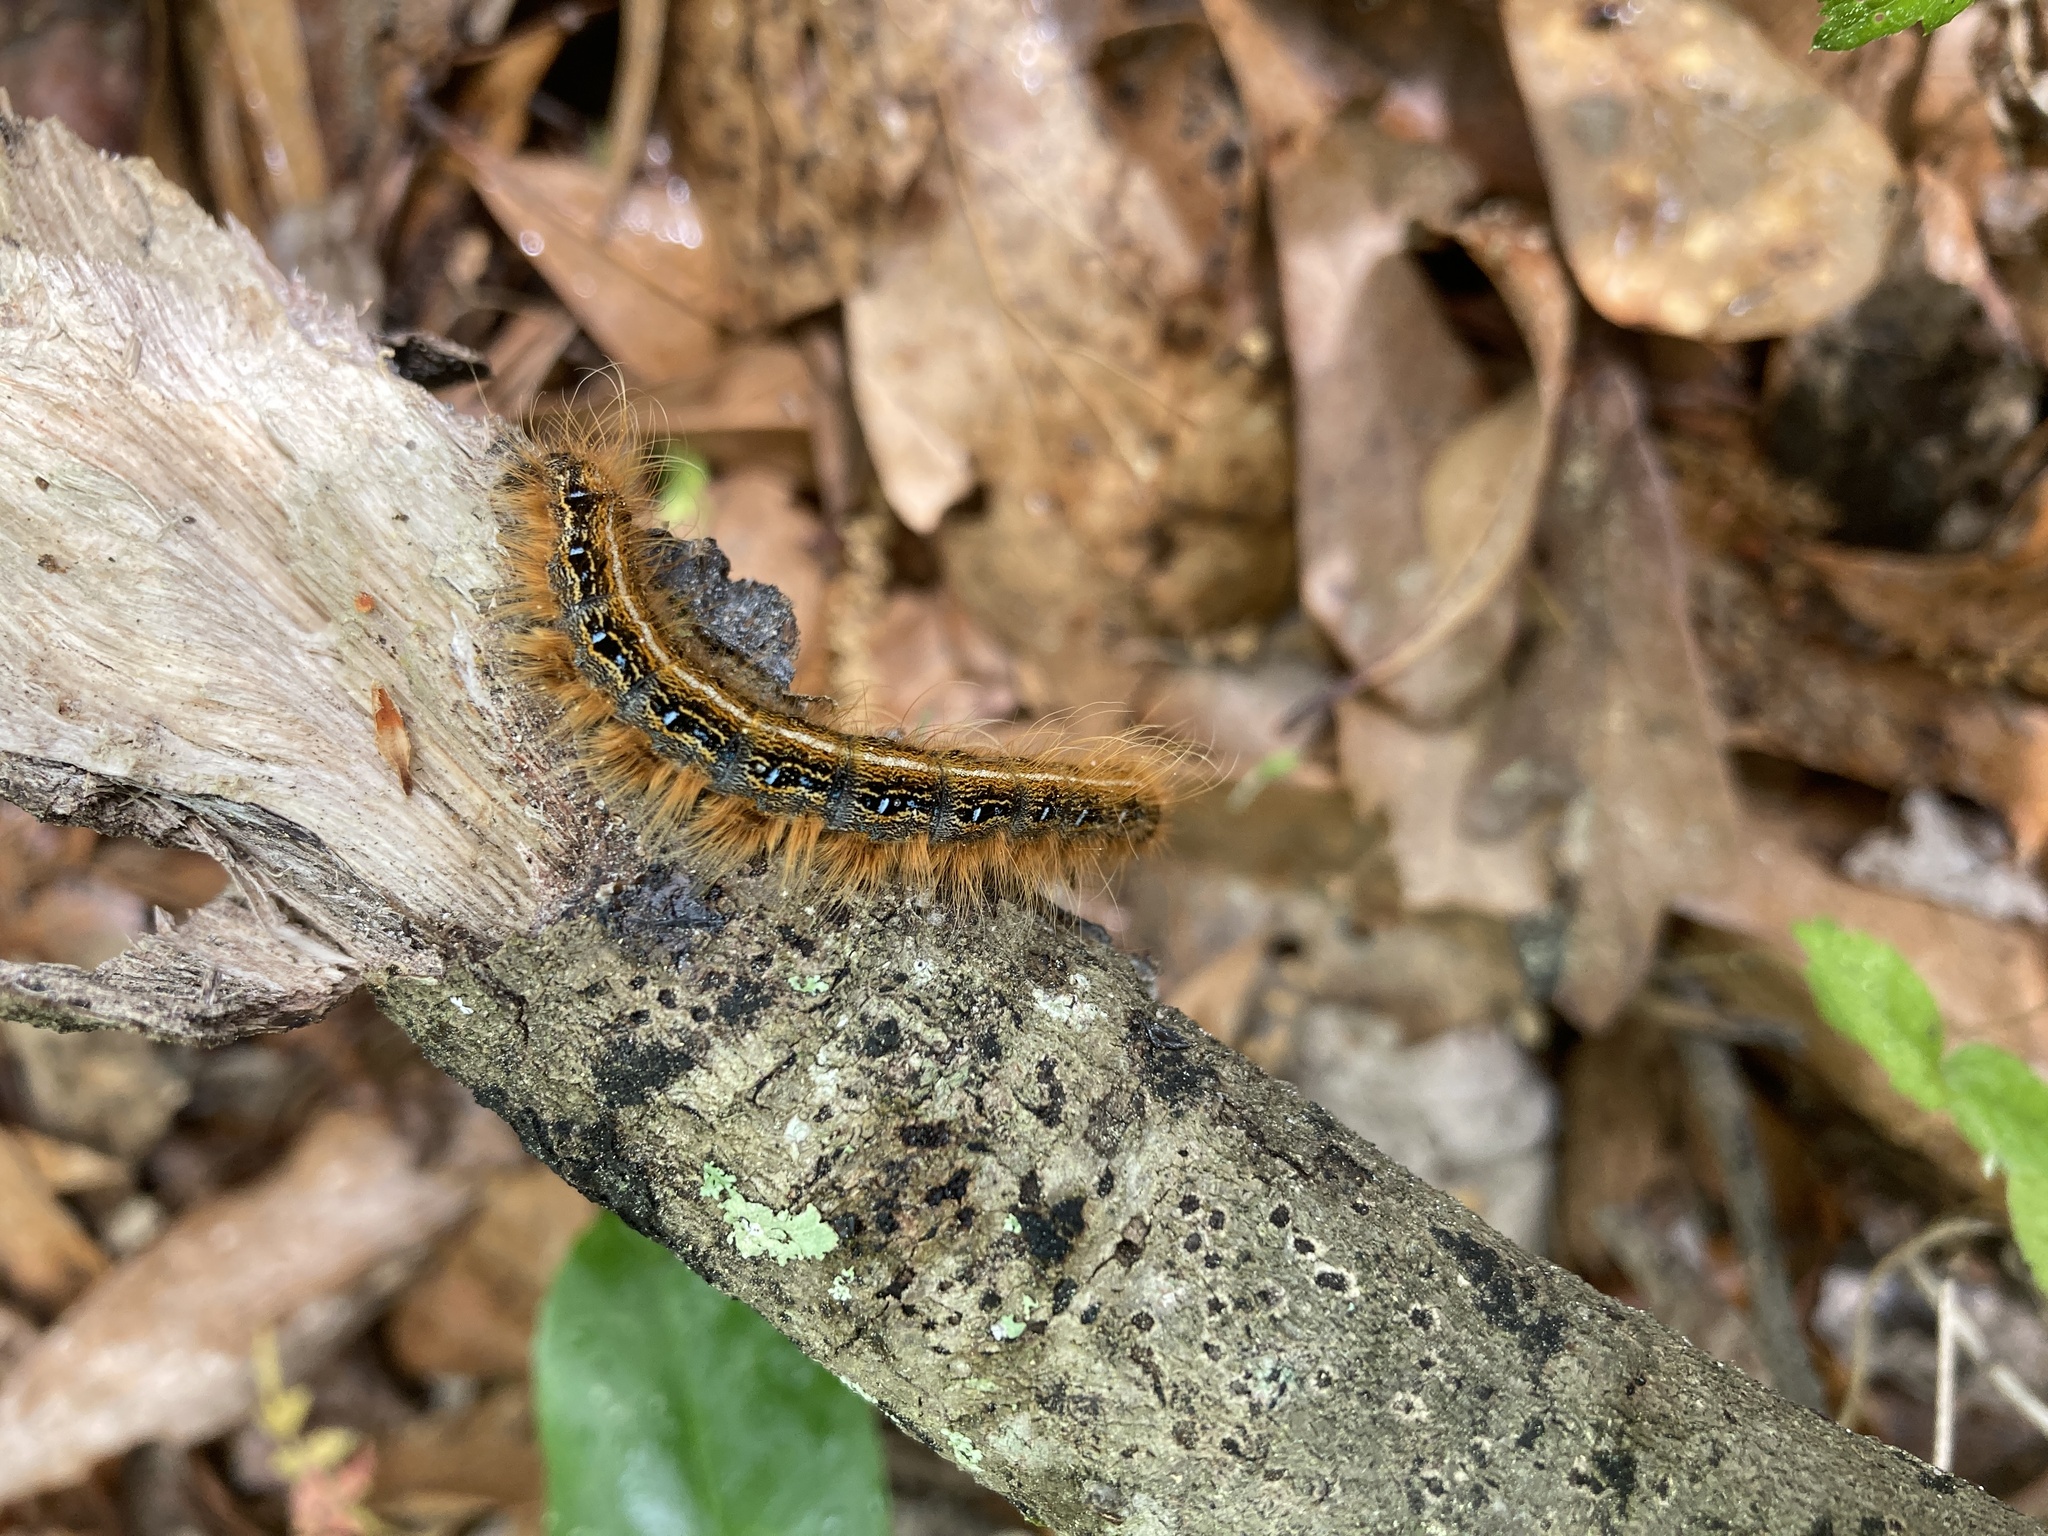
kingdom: Animalia
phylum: Arthropoda
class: Insecta
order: Lepidoptera
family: Lasiocampidae
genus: Malacosoma
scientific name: Malacosoma americana
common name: Eastern tent caterpillar moth
